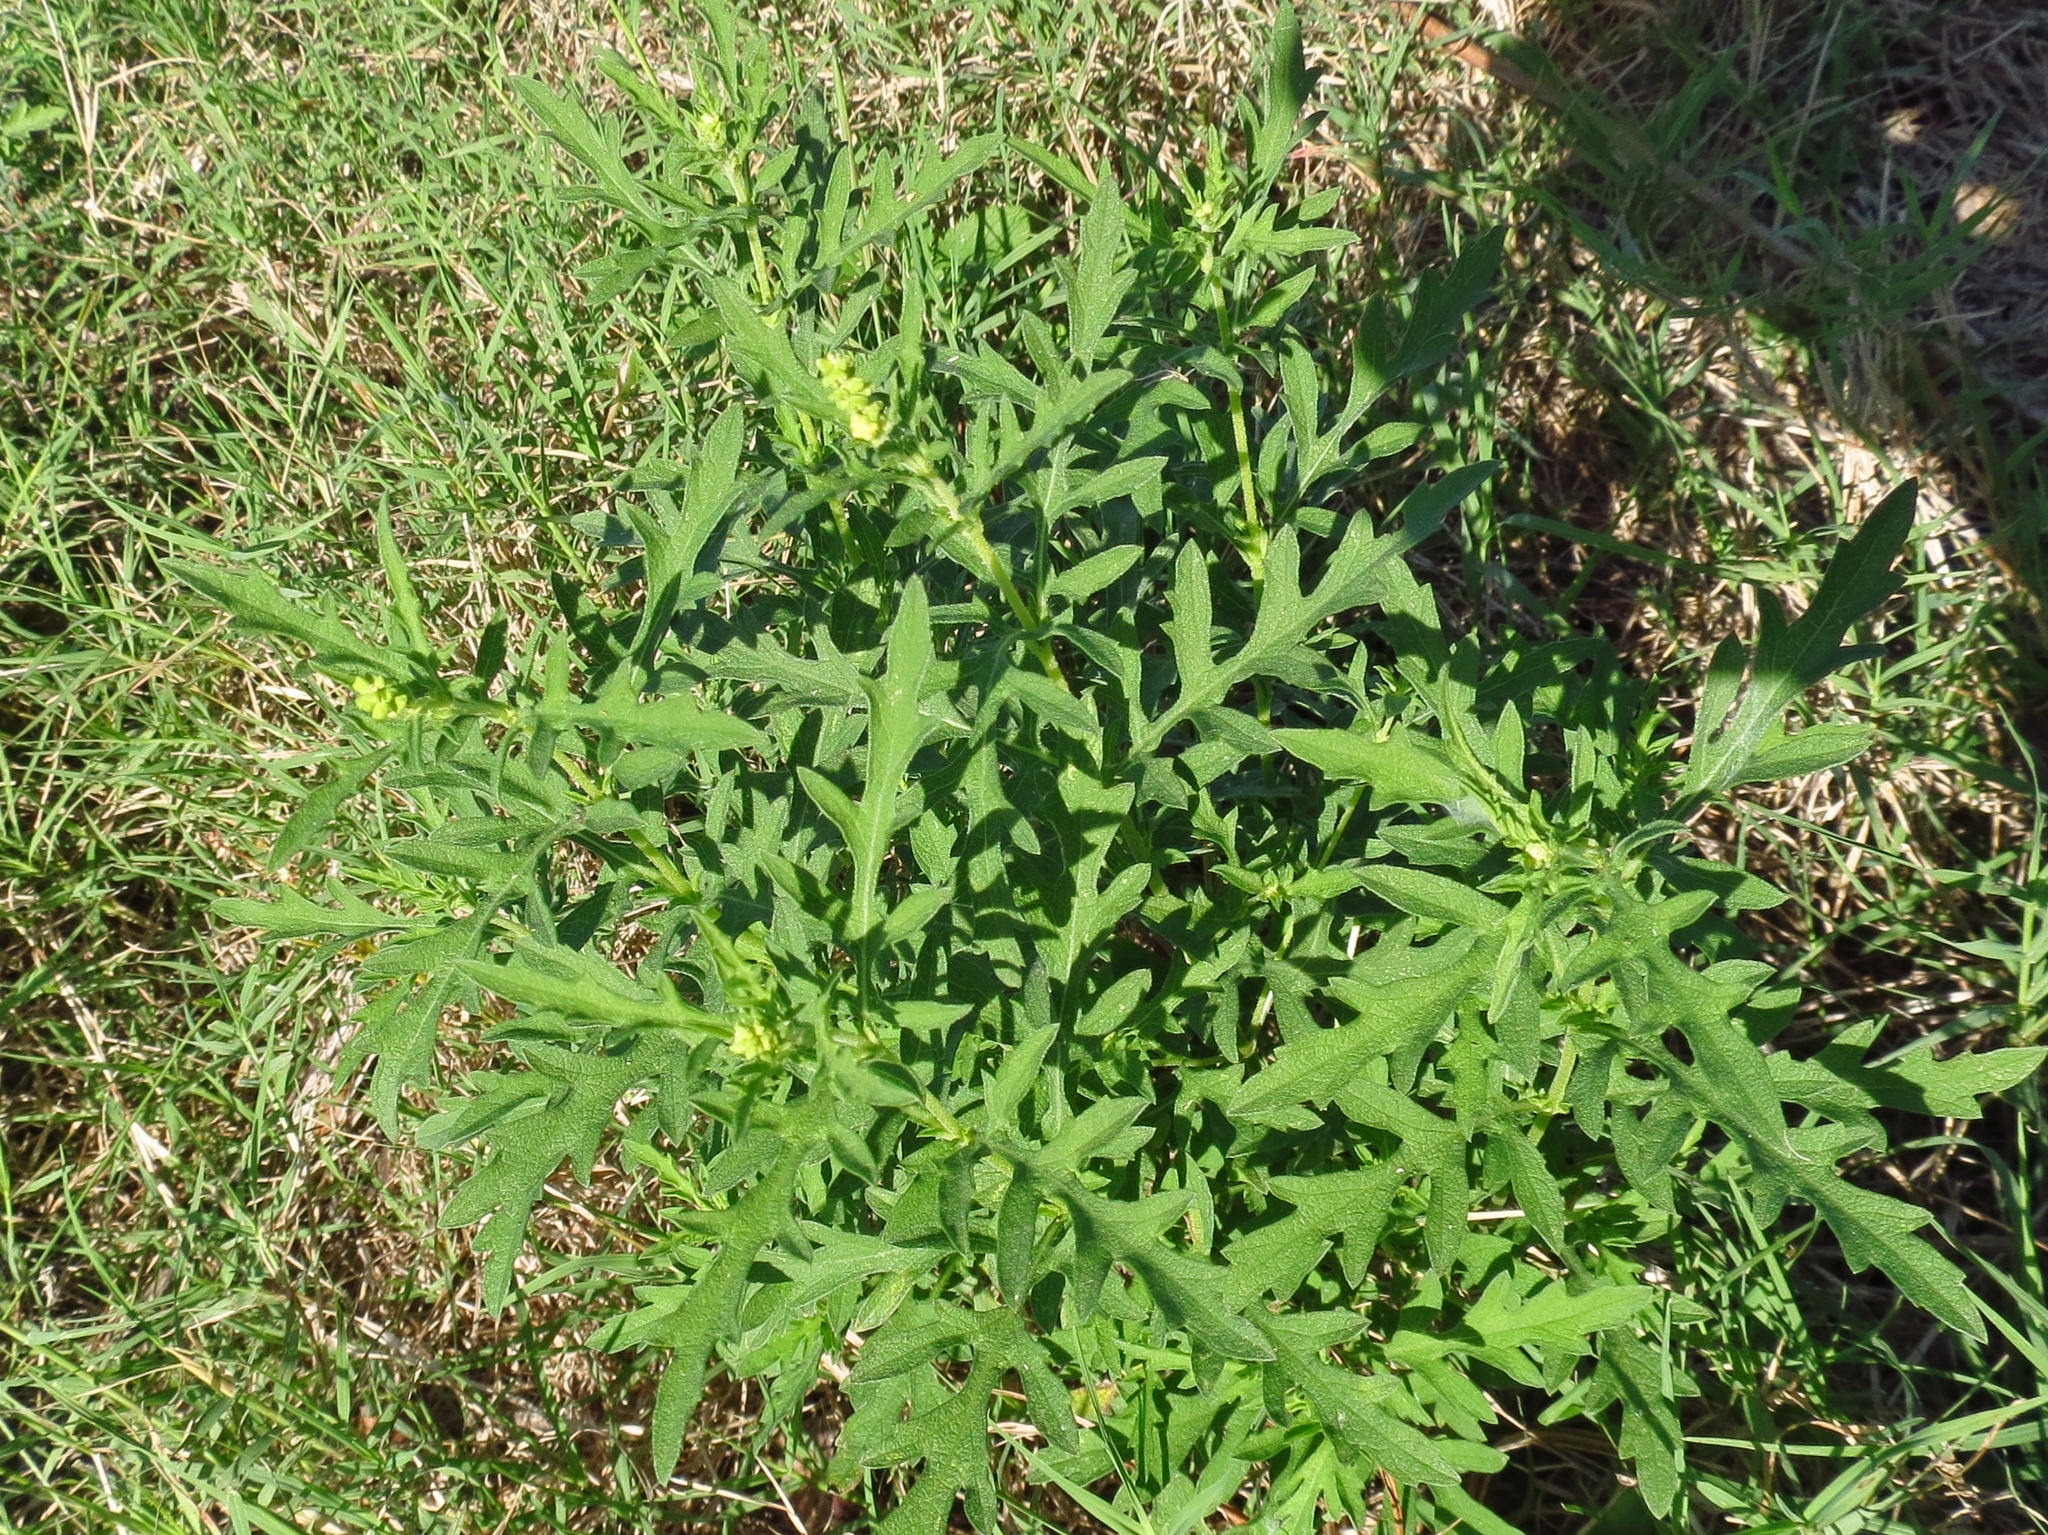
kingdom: Plantae
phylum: Tracheophyta
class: Magnoliopsida
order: Asterales
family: Asteraceae
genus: Ambrosia
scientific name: Ambrosia psilostachya
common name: Perennial ragweed
